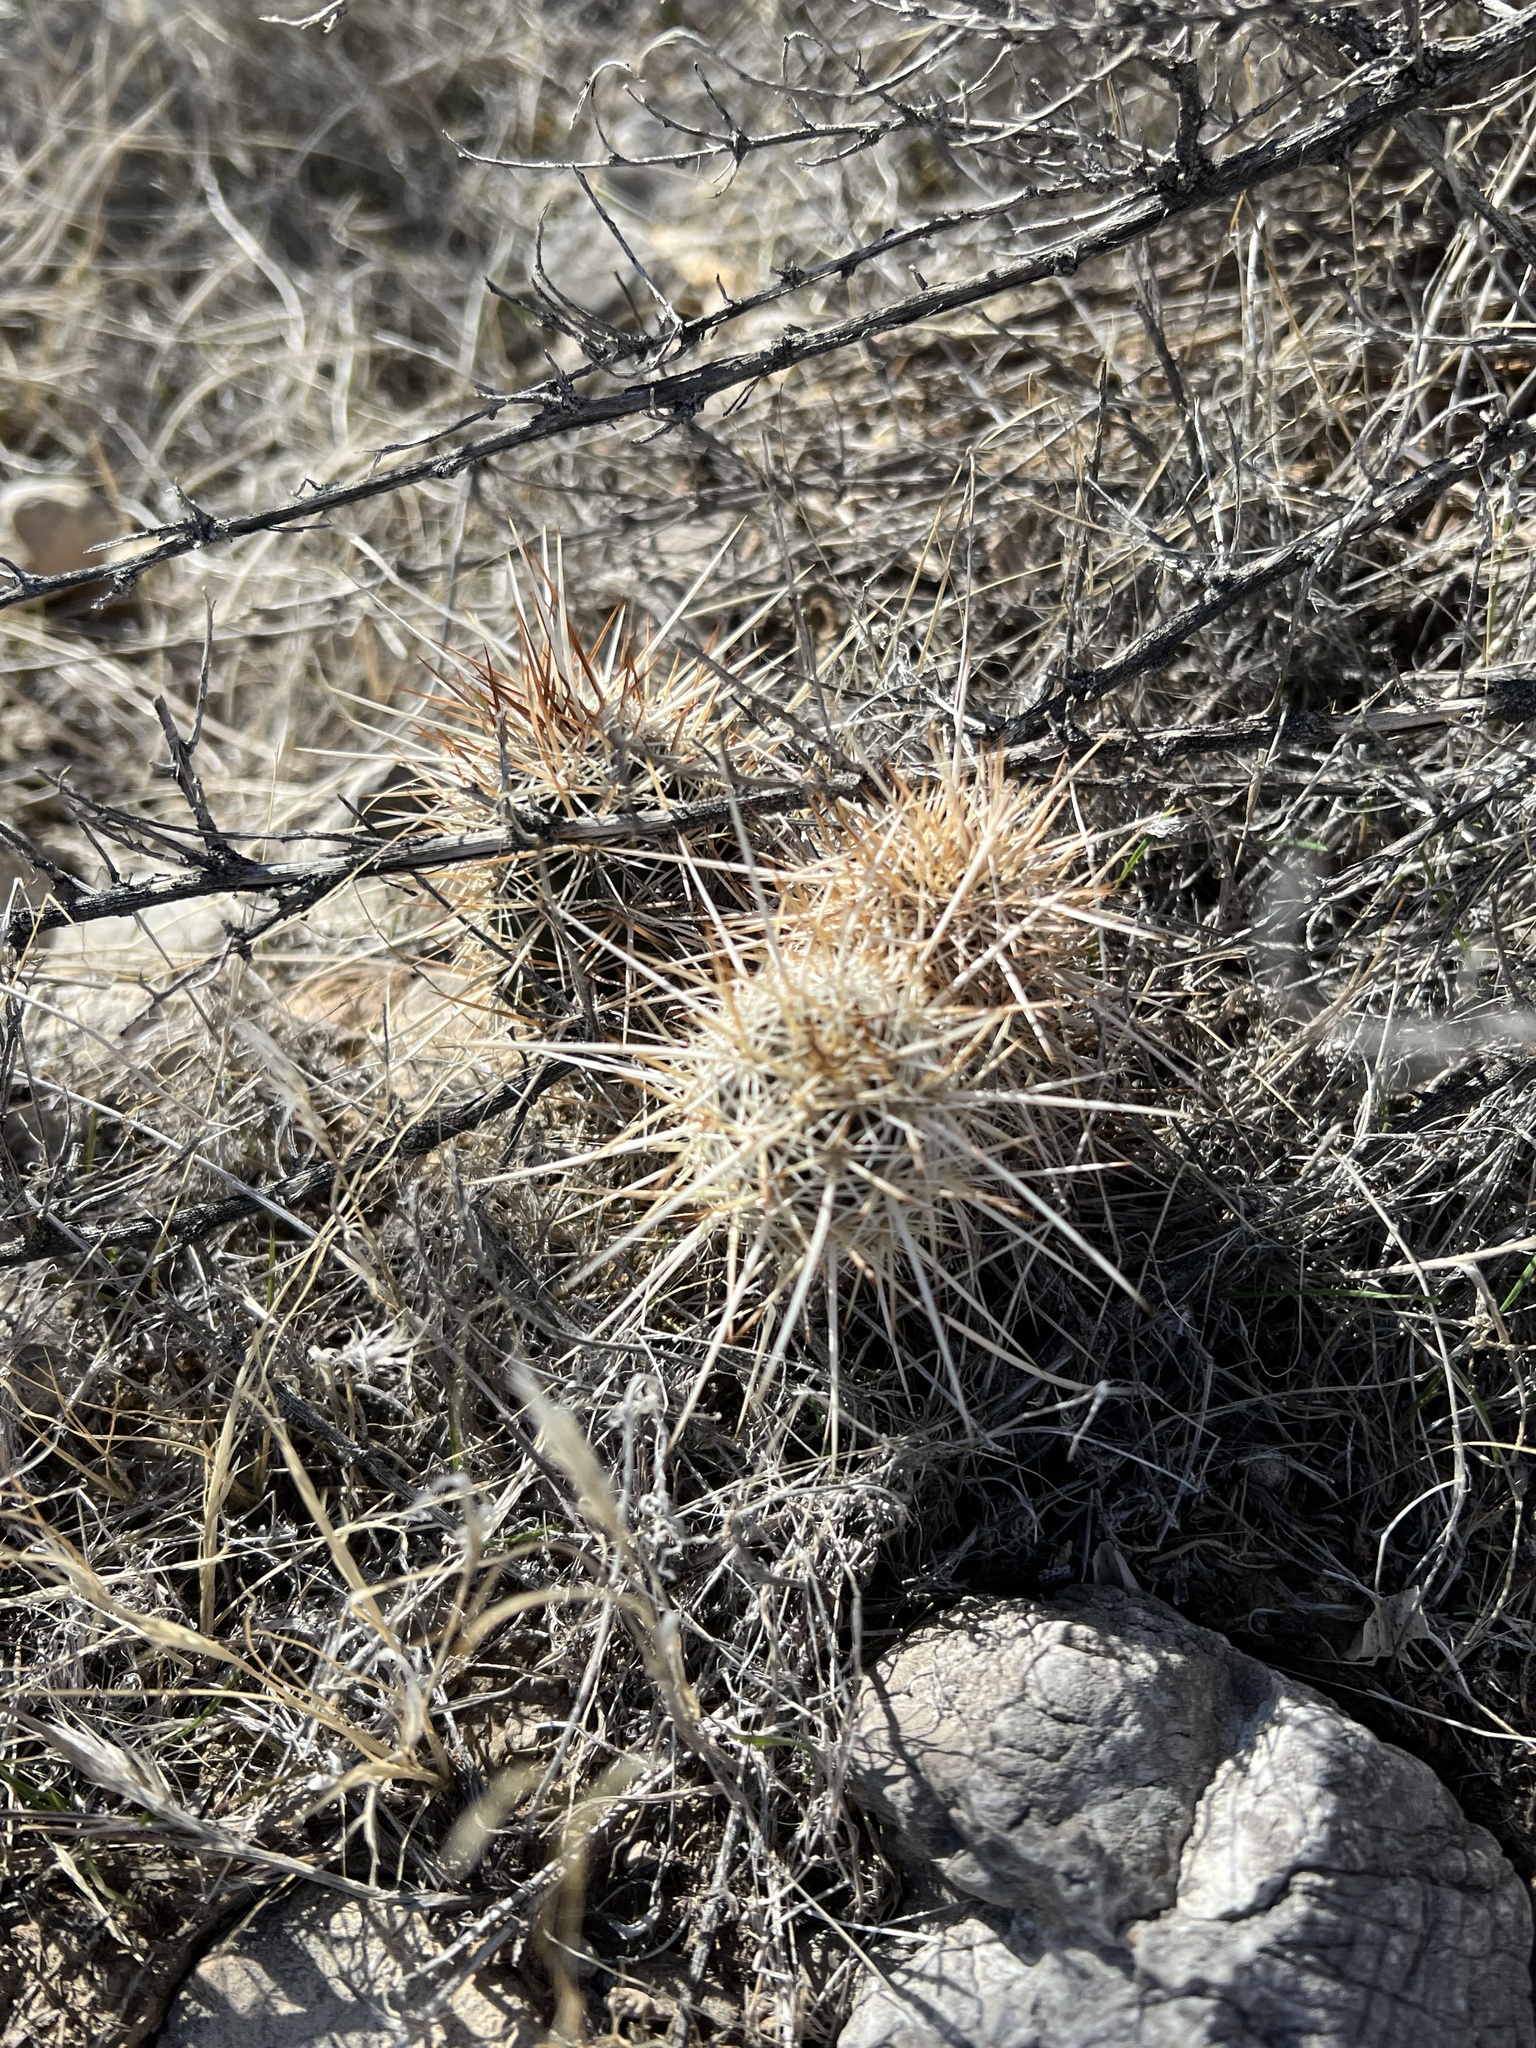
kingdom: Plantae
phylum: Tracheophyta
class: Magnoliopsida
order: Caryophyllales
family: Cactaceae
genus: Echinocereus
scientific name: Echinocereus engelmannii
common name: Engelmann's hedgehog cactus
